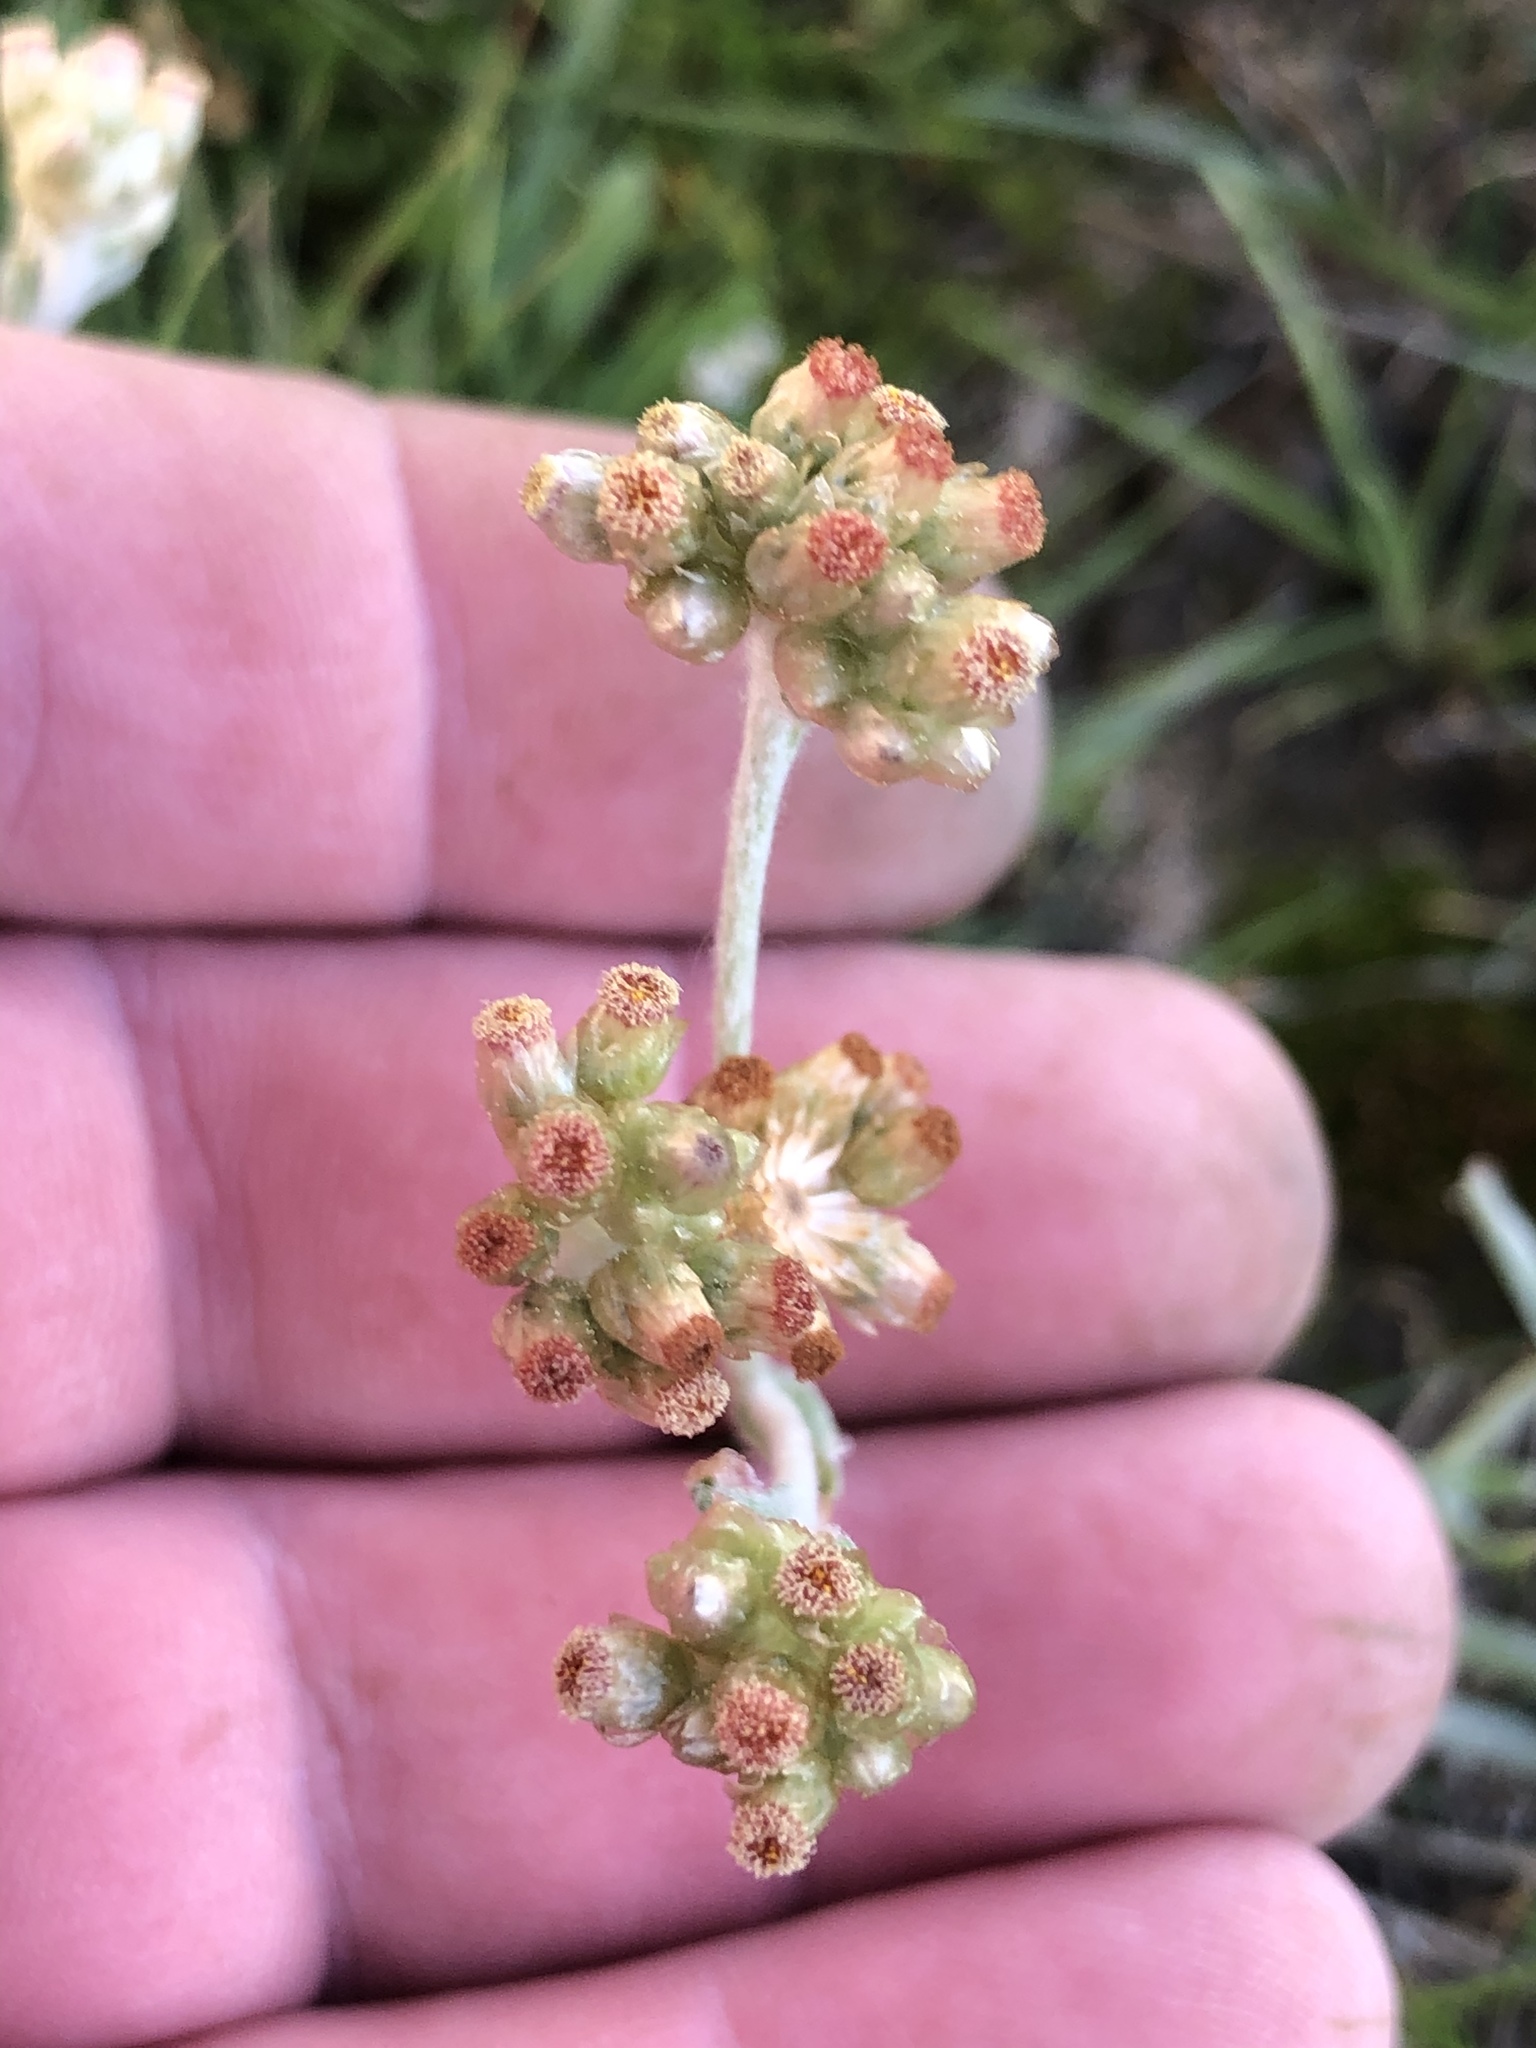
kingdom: Plantae
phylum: Tracheophyta
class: Magnoliopsida
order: Asterales
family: Asteraceae
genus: Helichrysum
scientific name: Helichrysum luteoalbum
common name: Daisy
